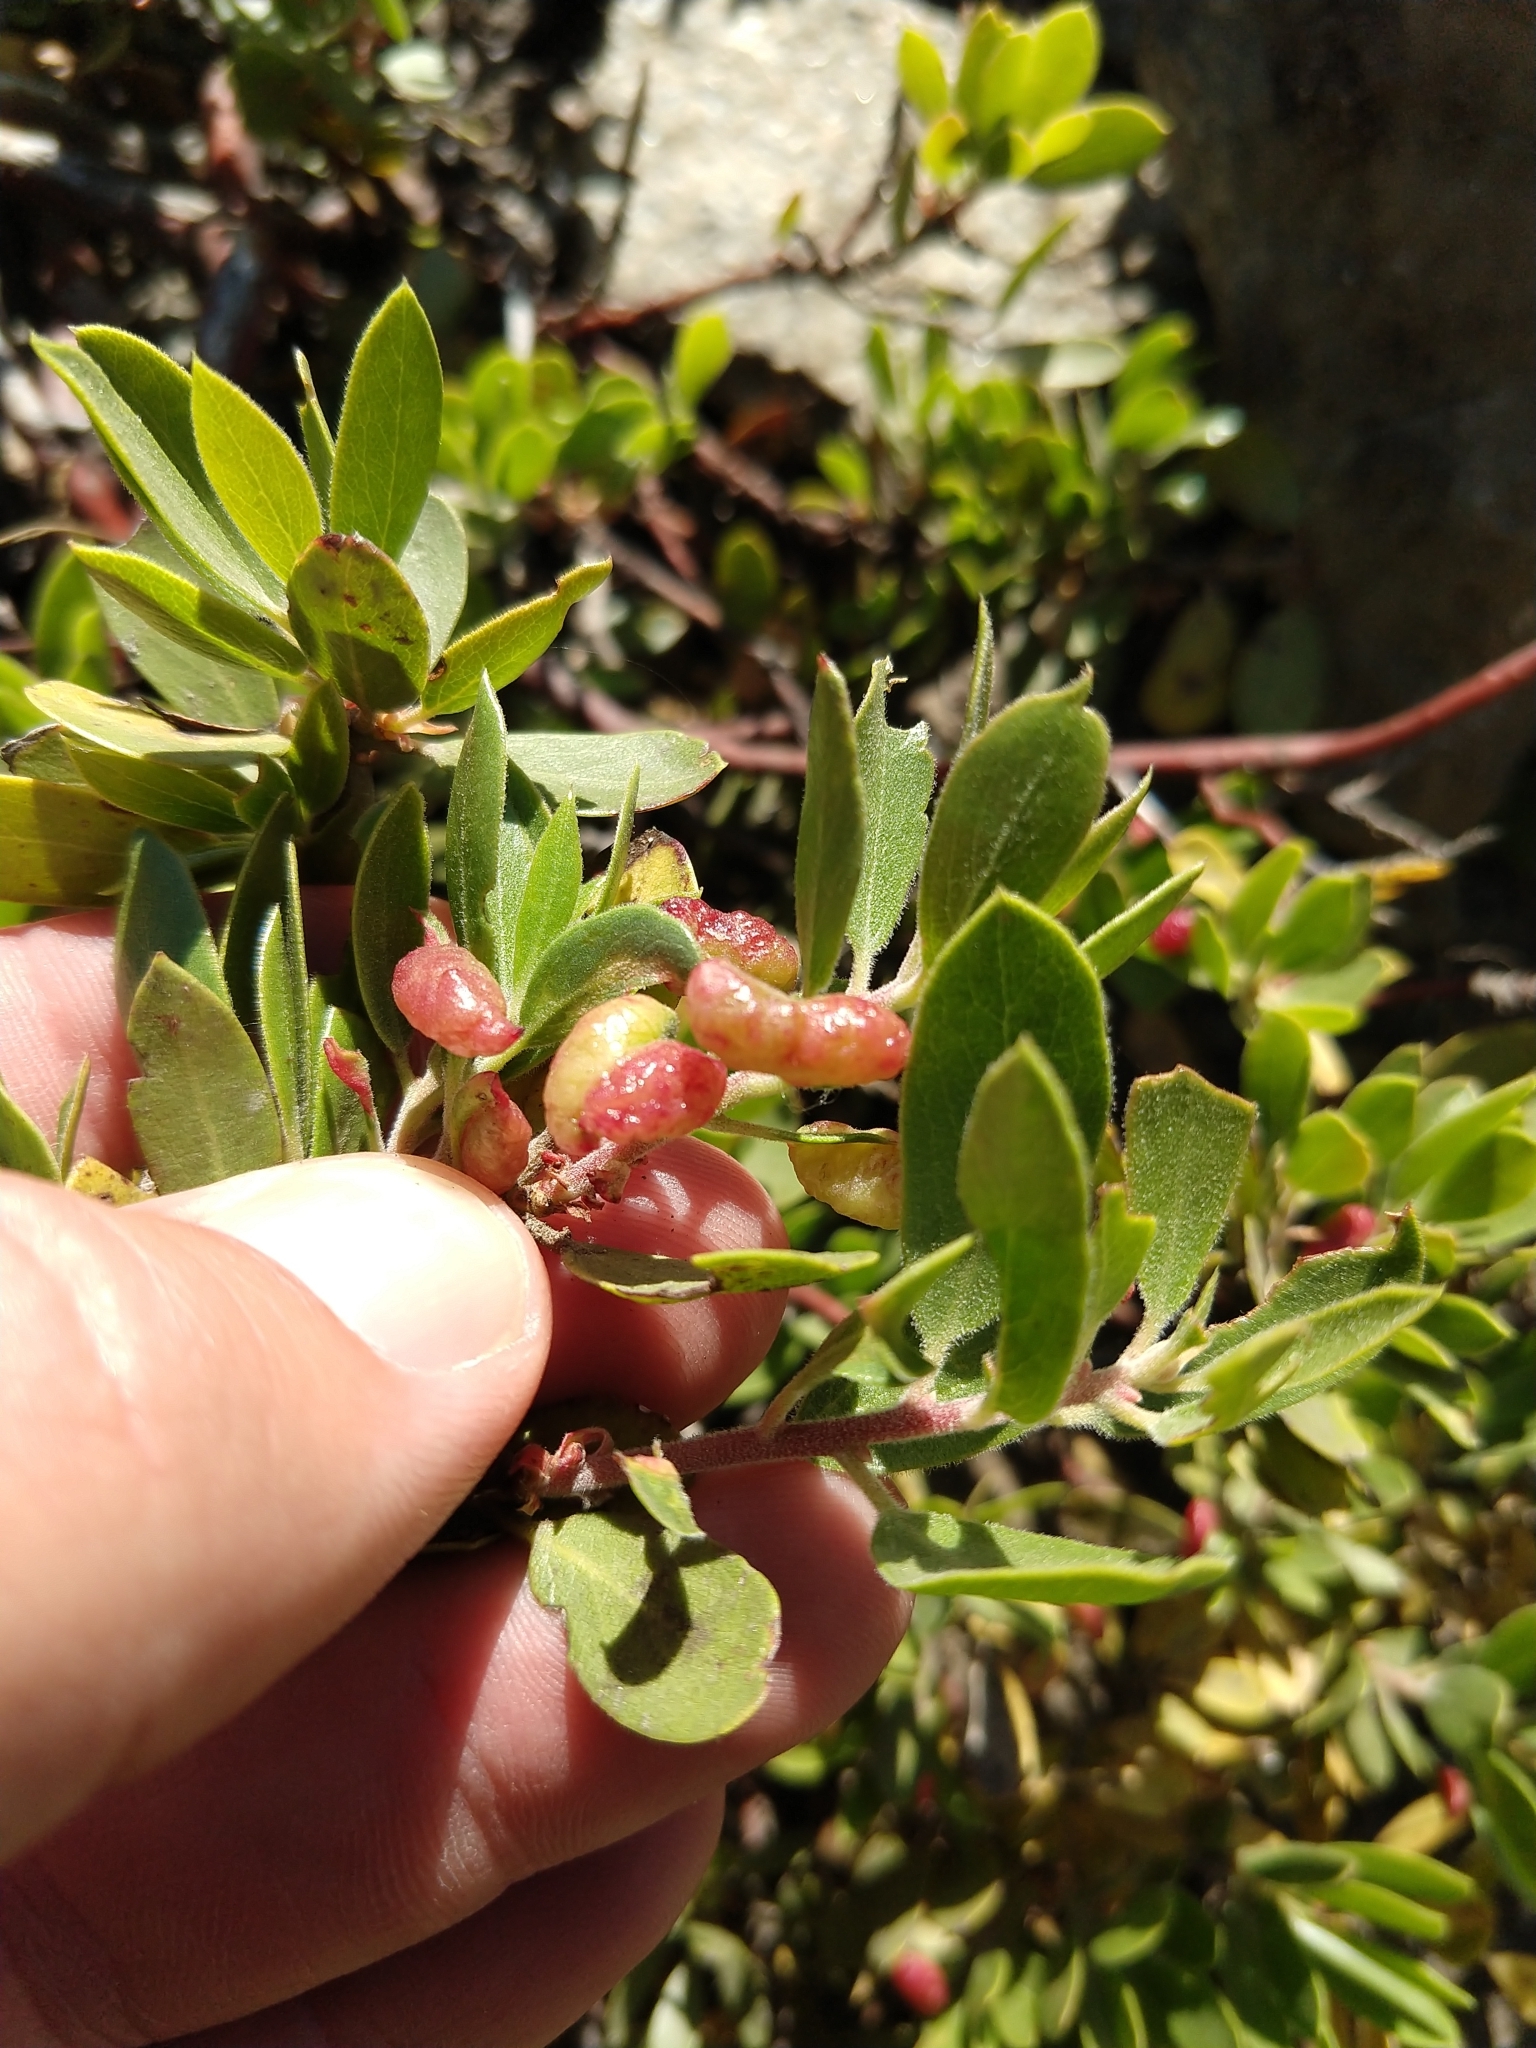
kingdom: Animalia
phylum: Arthropoda
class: Insecta
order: Hemiptera
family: Aphididae
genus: Tamalia
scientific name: Tamalia coweni
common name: Manzanita leafgall aphid
